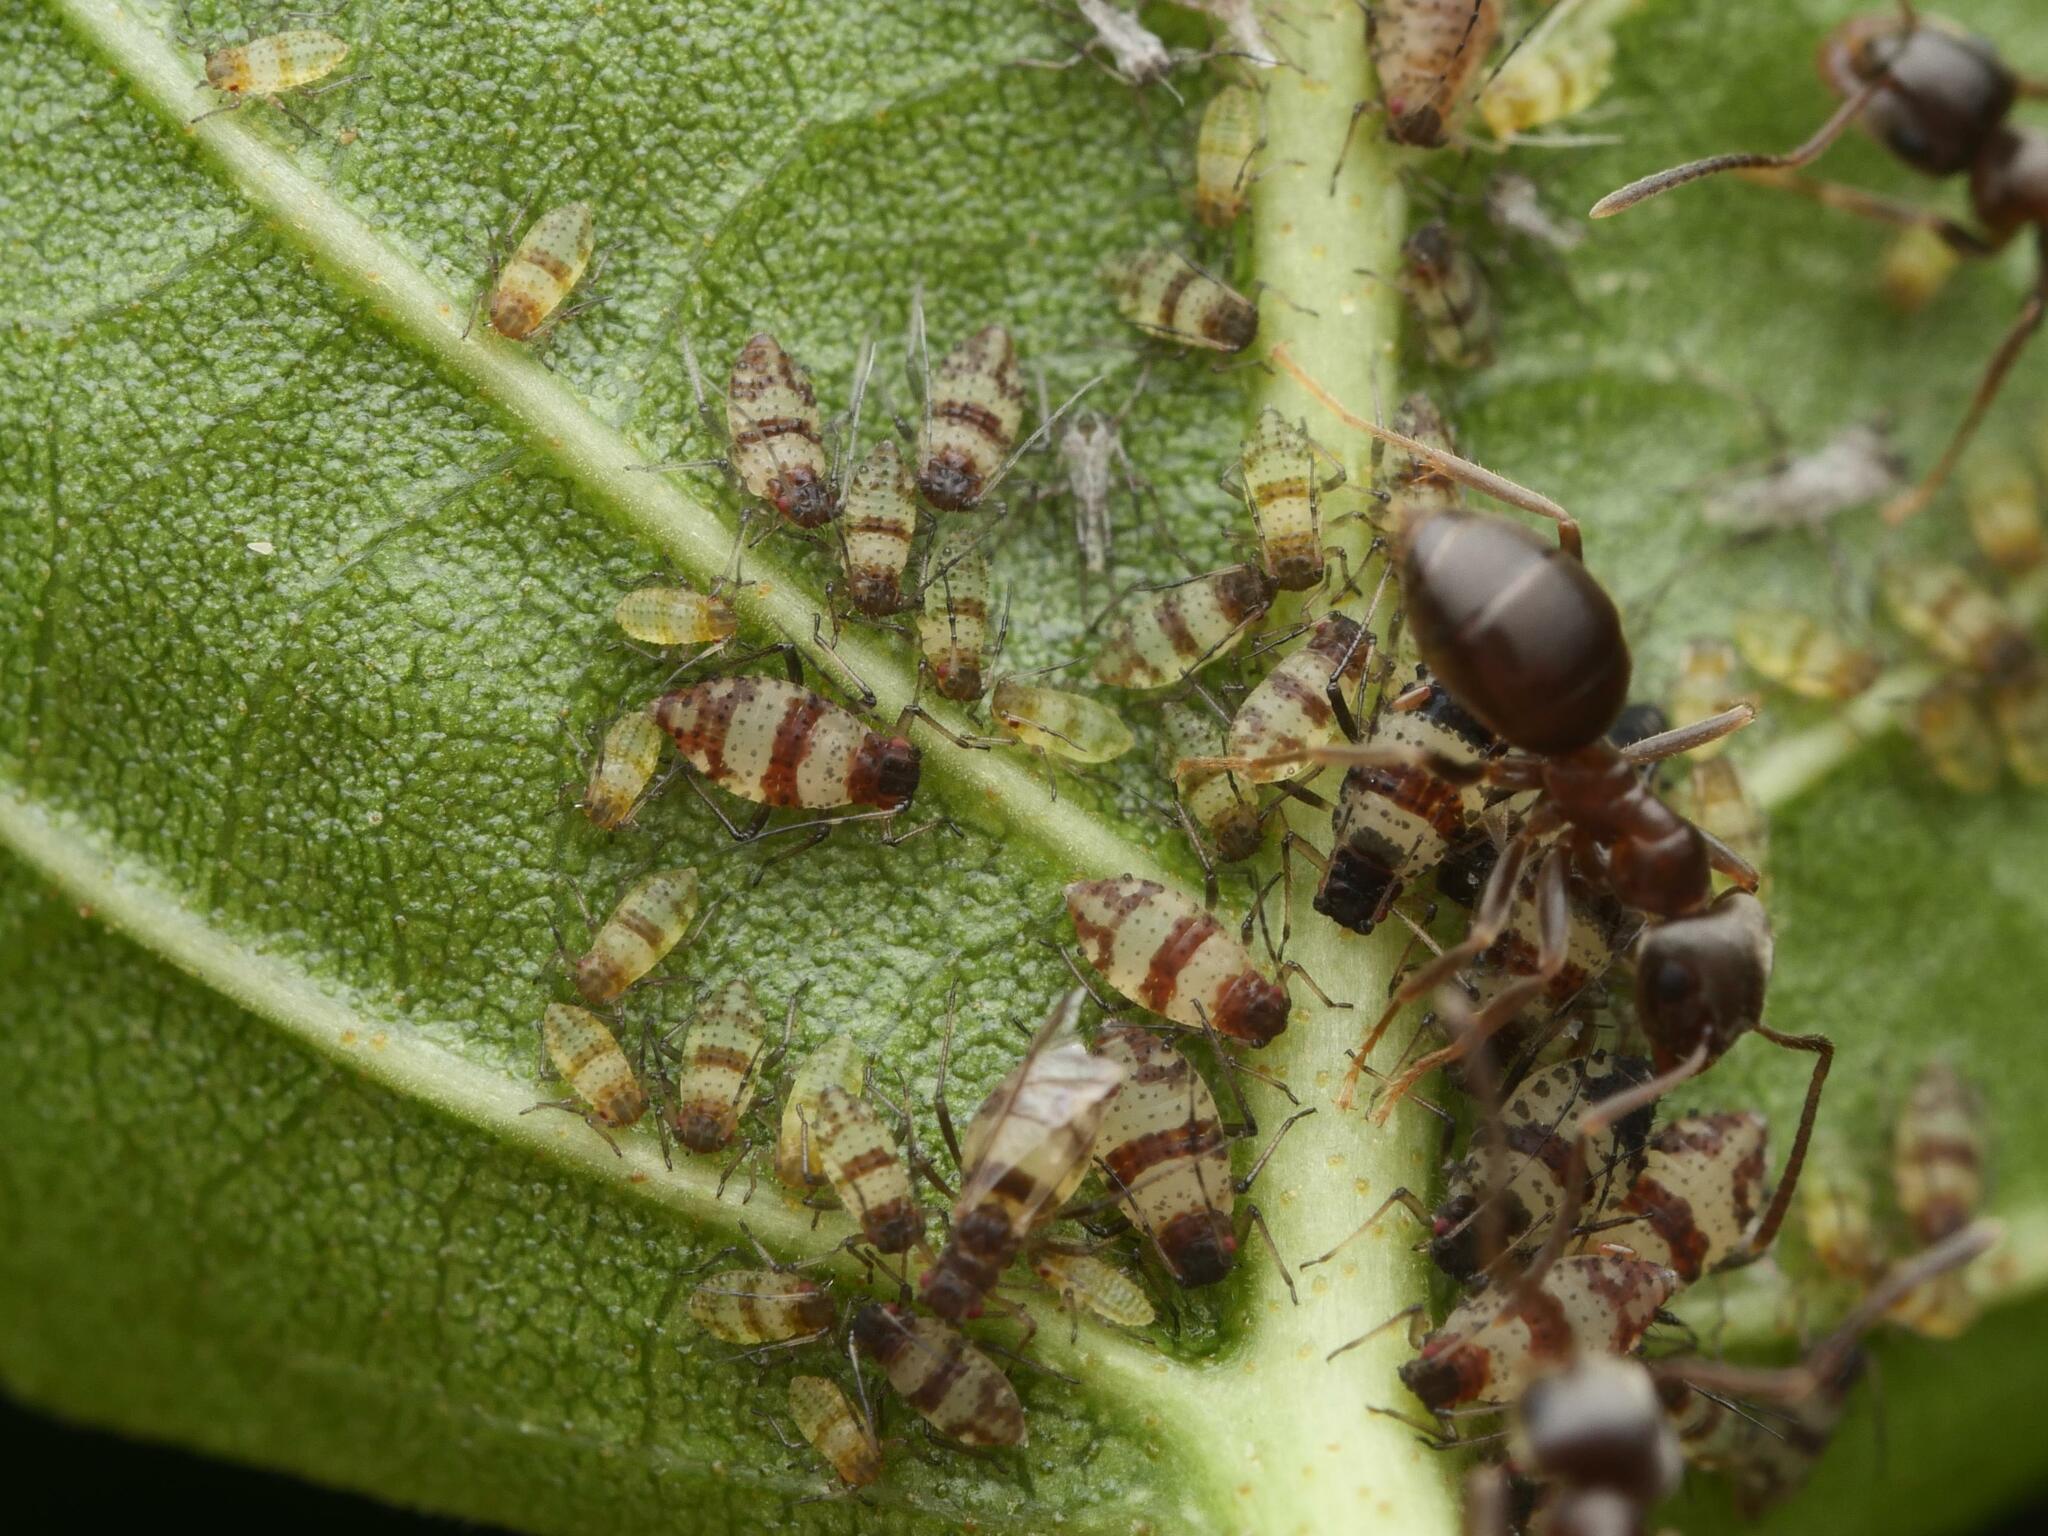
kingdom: Animalia
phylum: Arthropoda
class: Insecta
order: Hemiptera
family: Aphididae
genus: Callipterinella
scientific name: Callipterinella tuberculata
